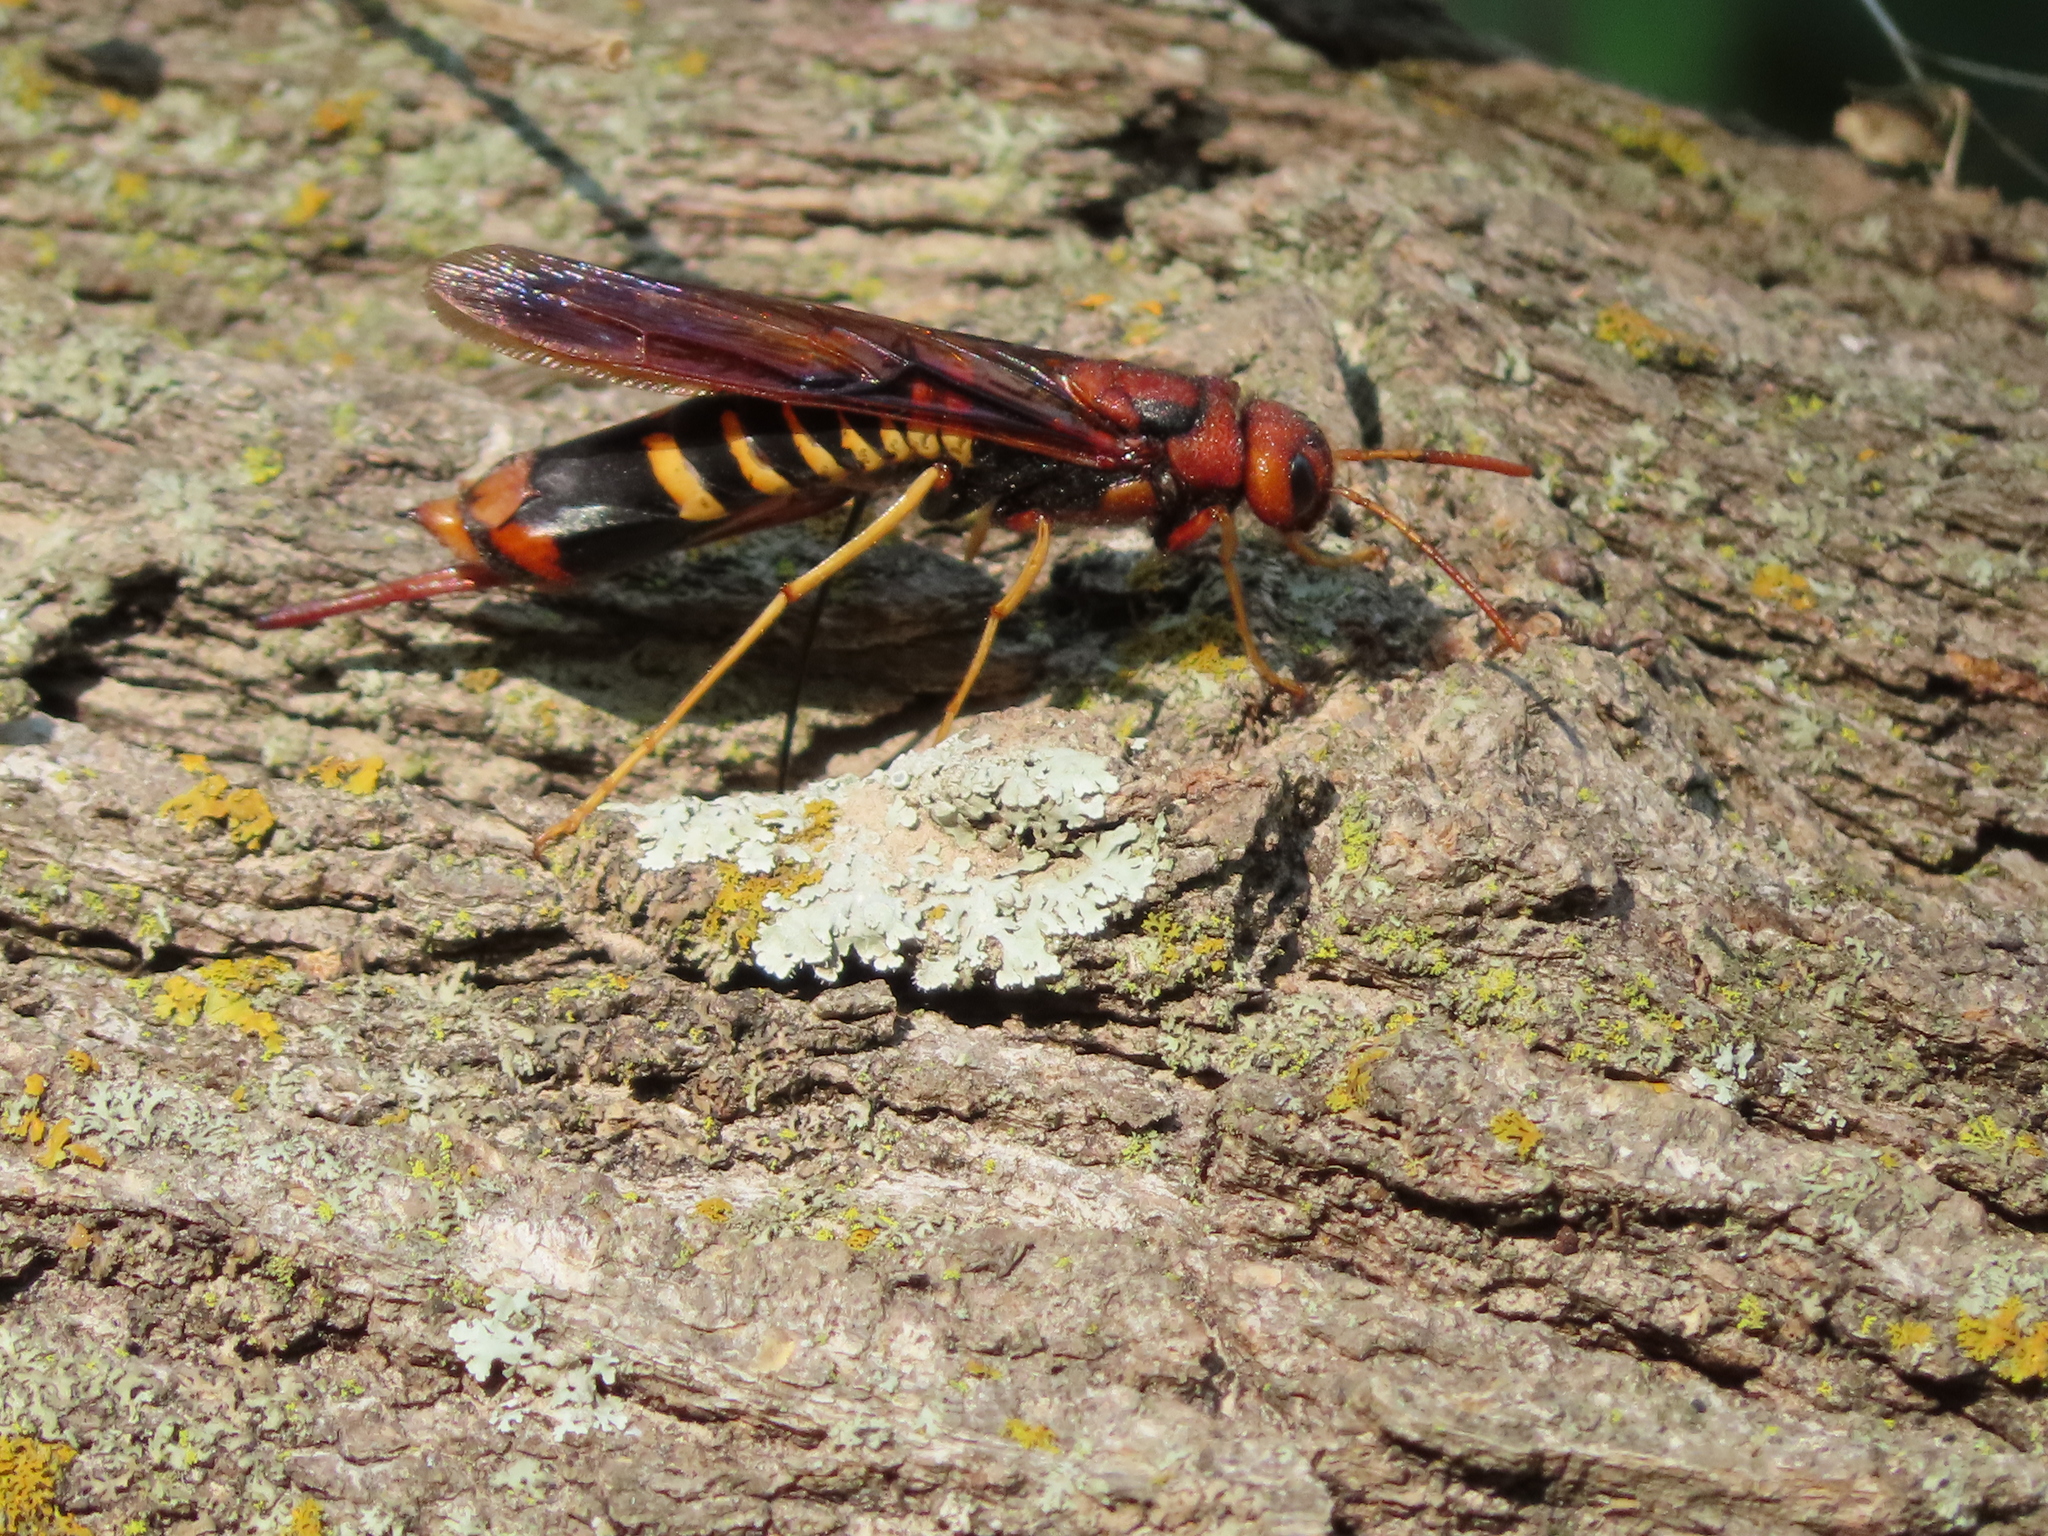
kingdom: Animalia
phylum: Arthropoda
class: Insecta
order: Hymenoptera
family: Siricidae
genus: Tremex
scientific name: Tremex columba
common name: Wasp
